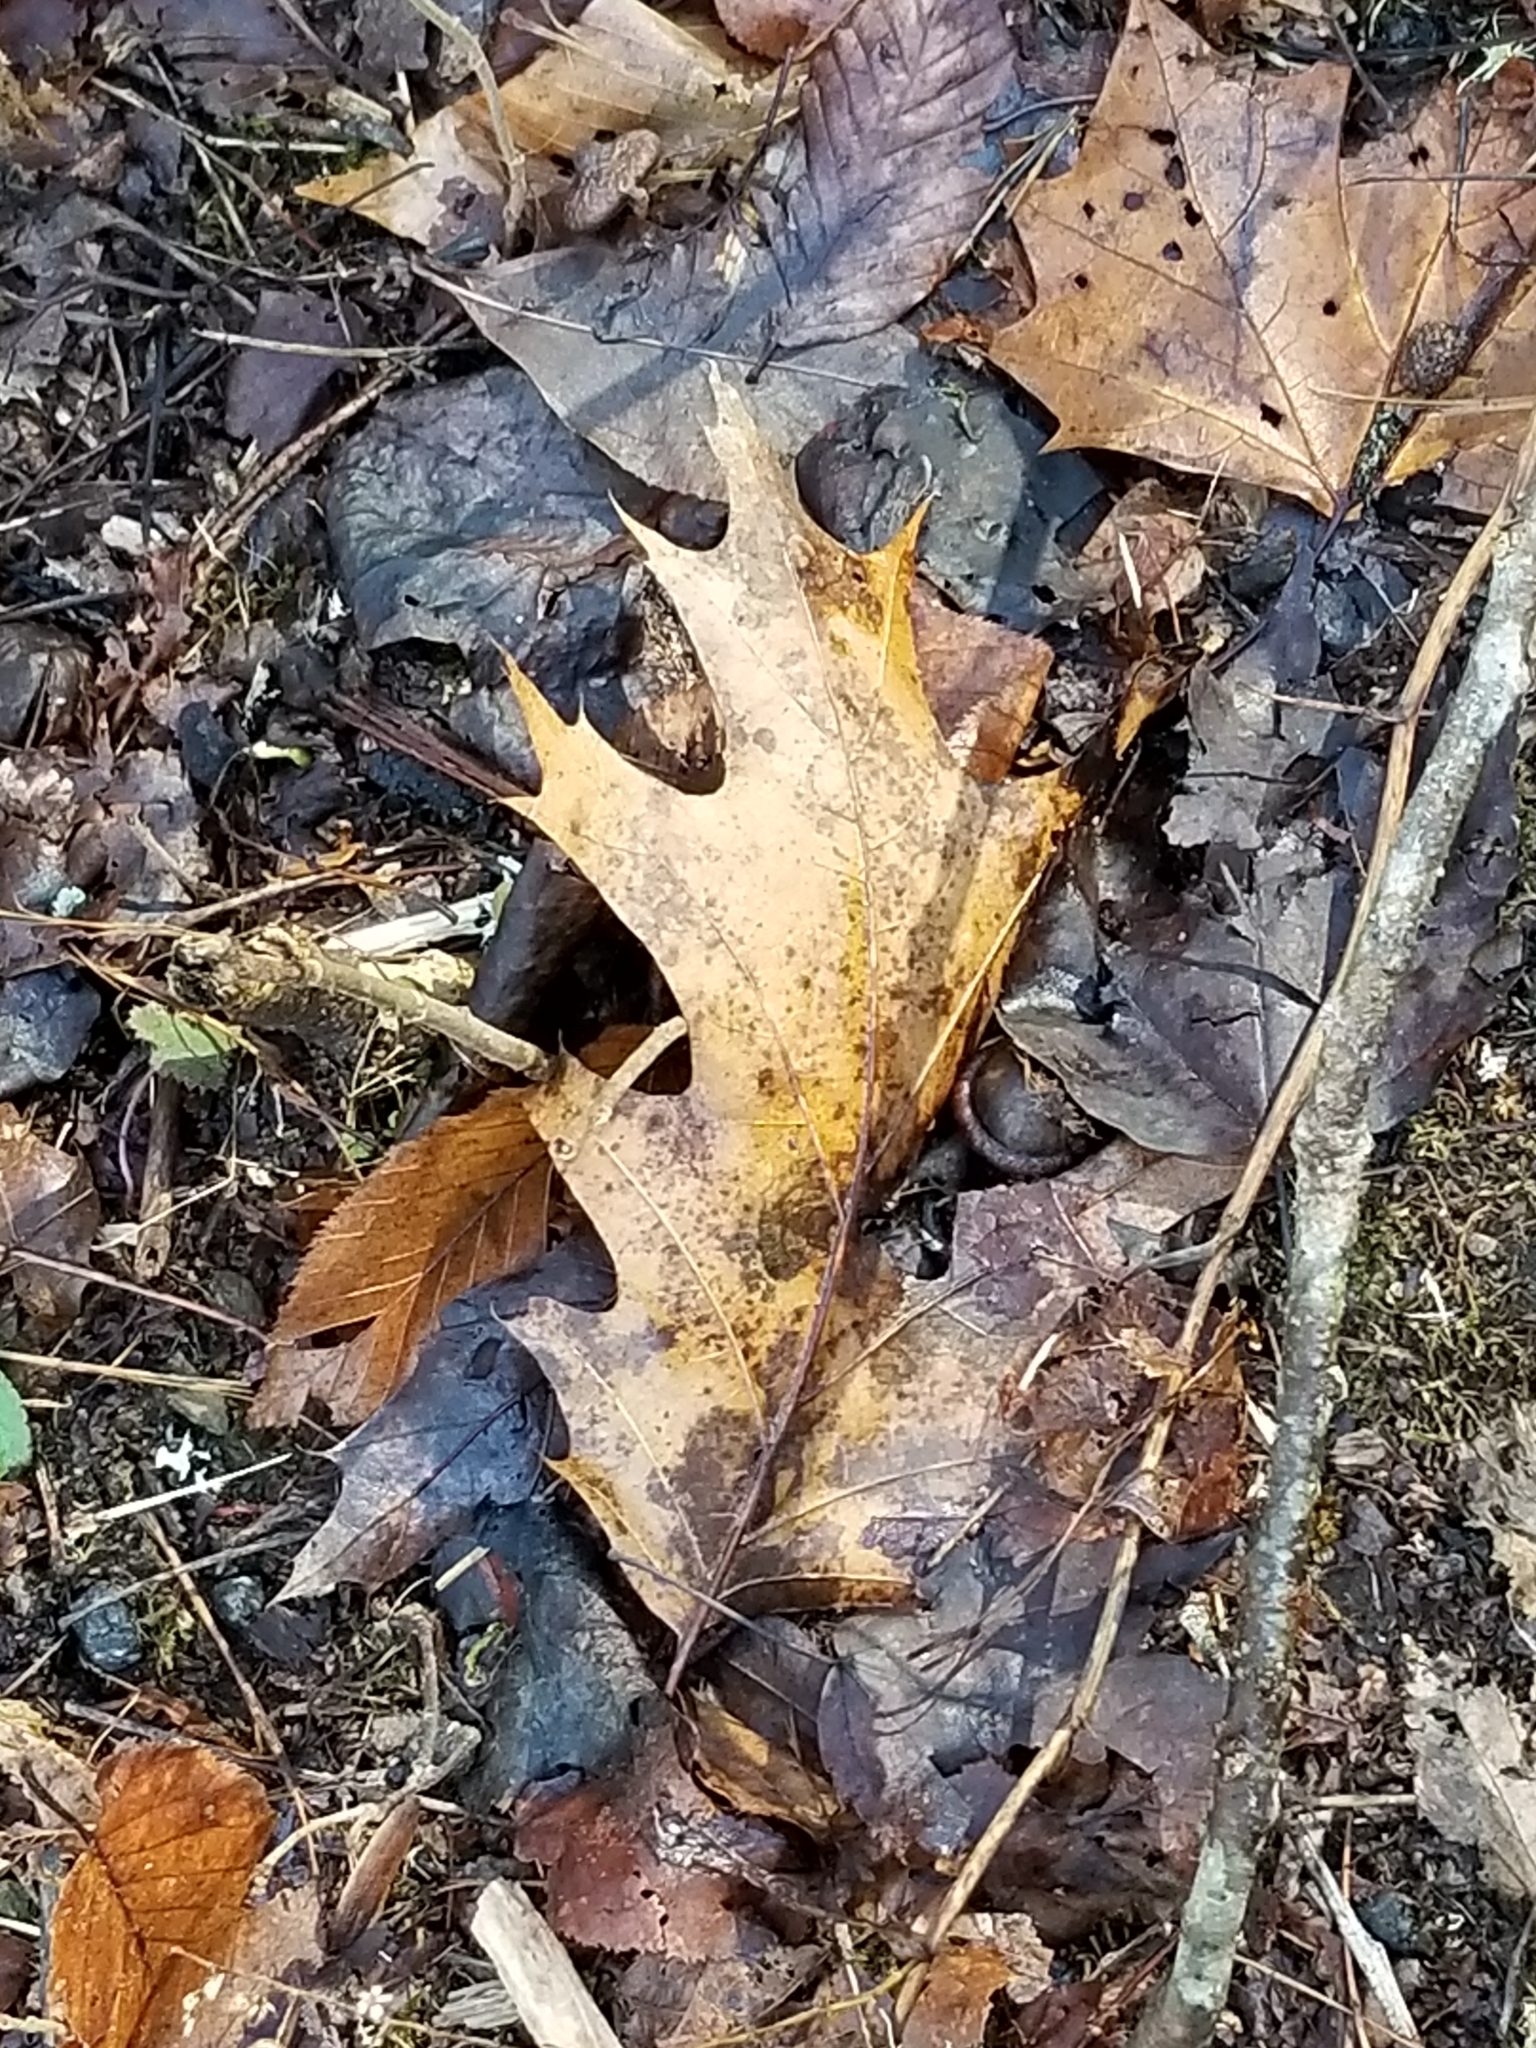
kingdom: Plantae
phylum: Tracheophyta
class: Magnoliopsida
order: Fagales
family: Fagaceae
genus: Quercus
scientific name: Quercus rubra
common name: Red oak
